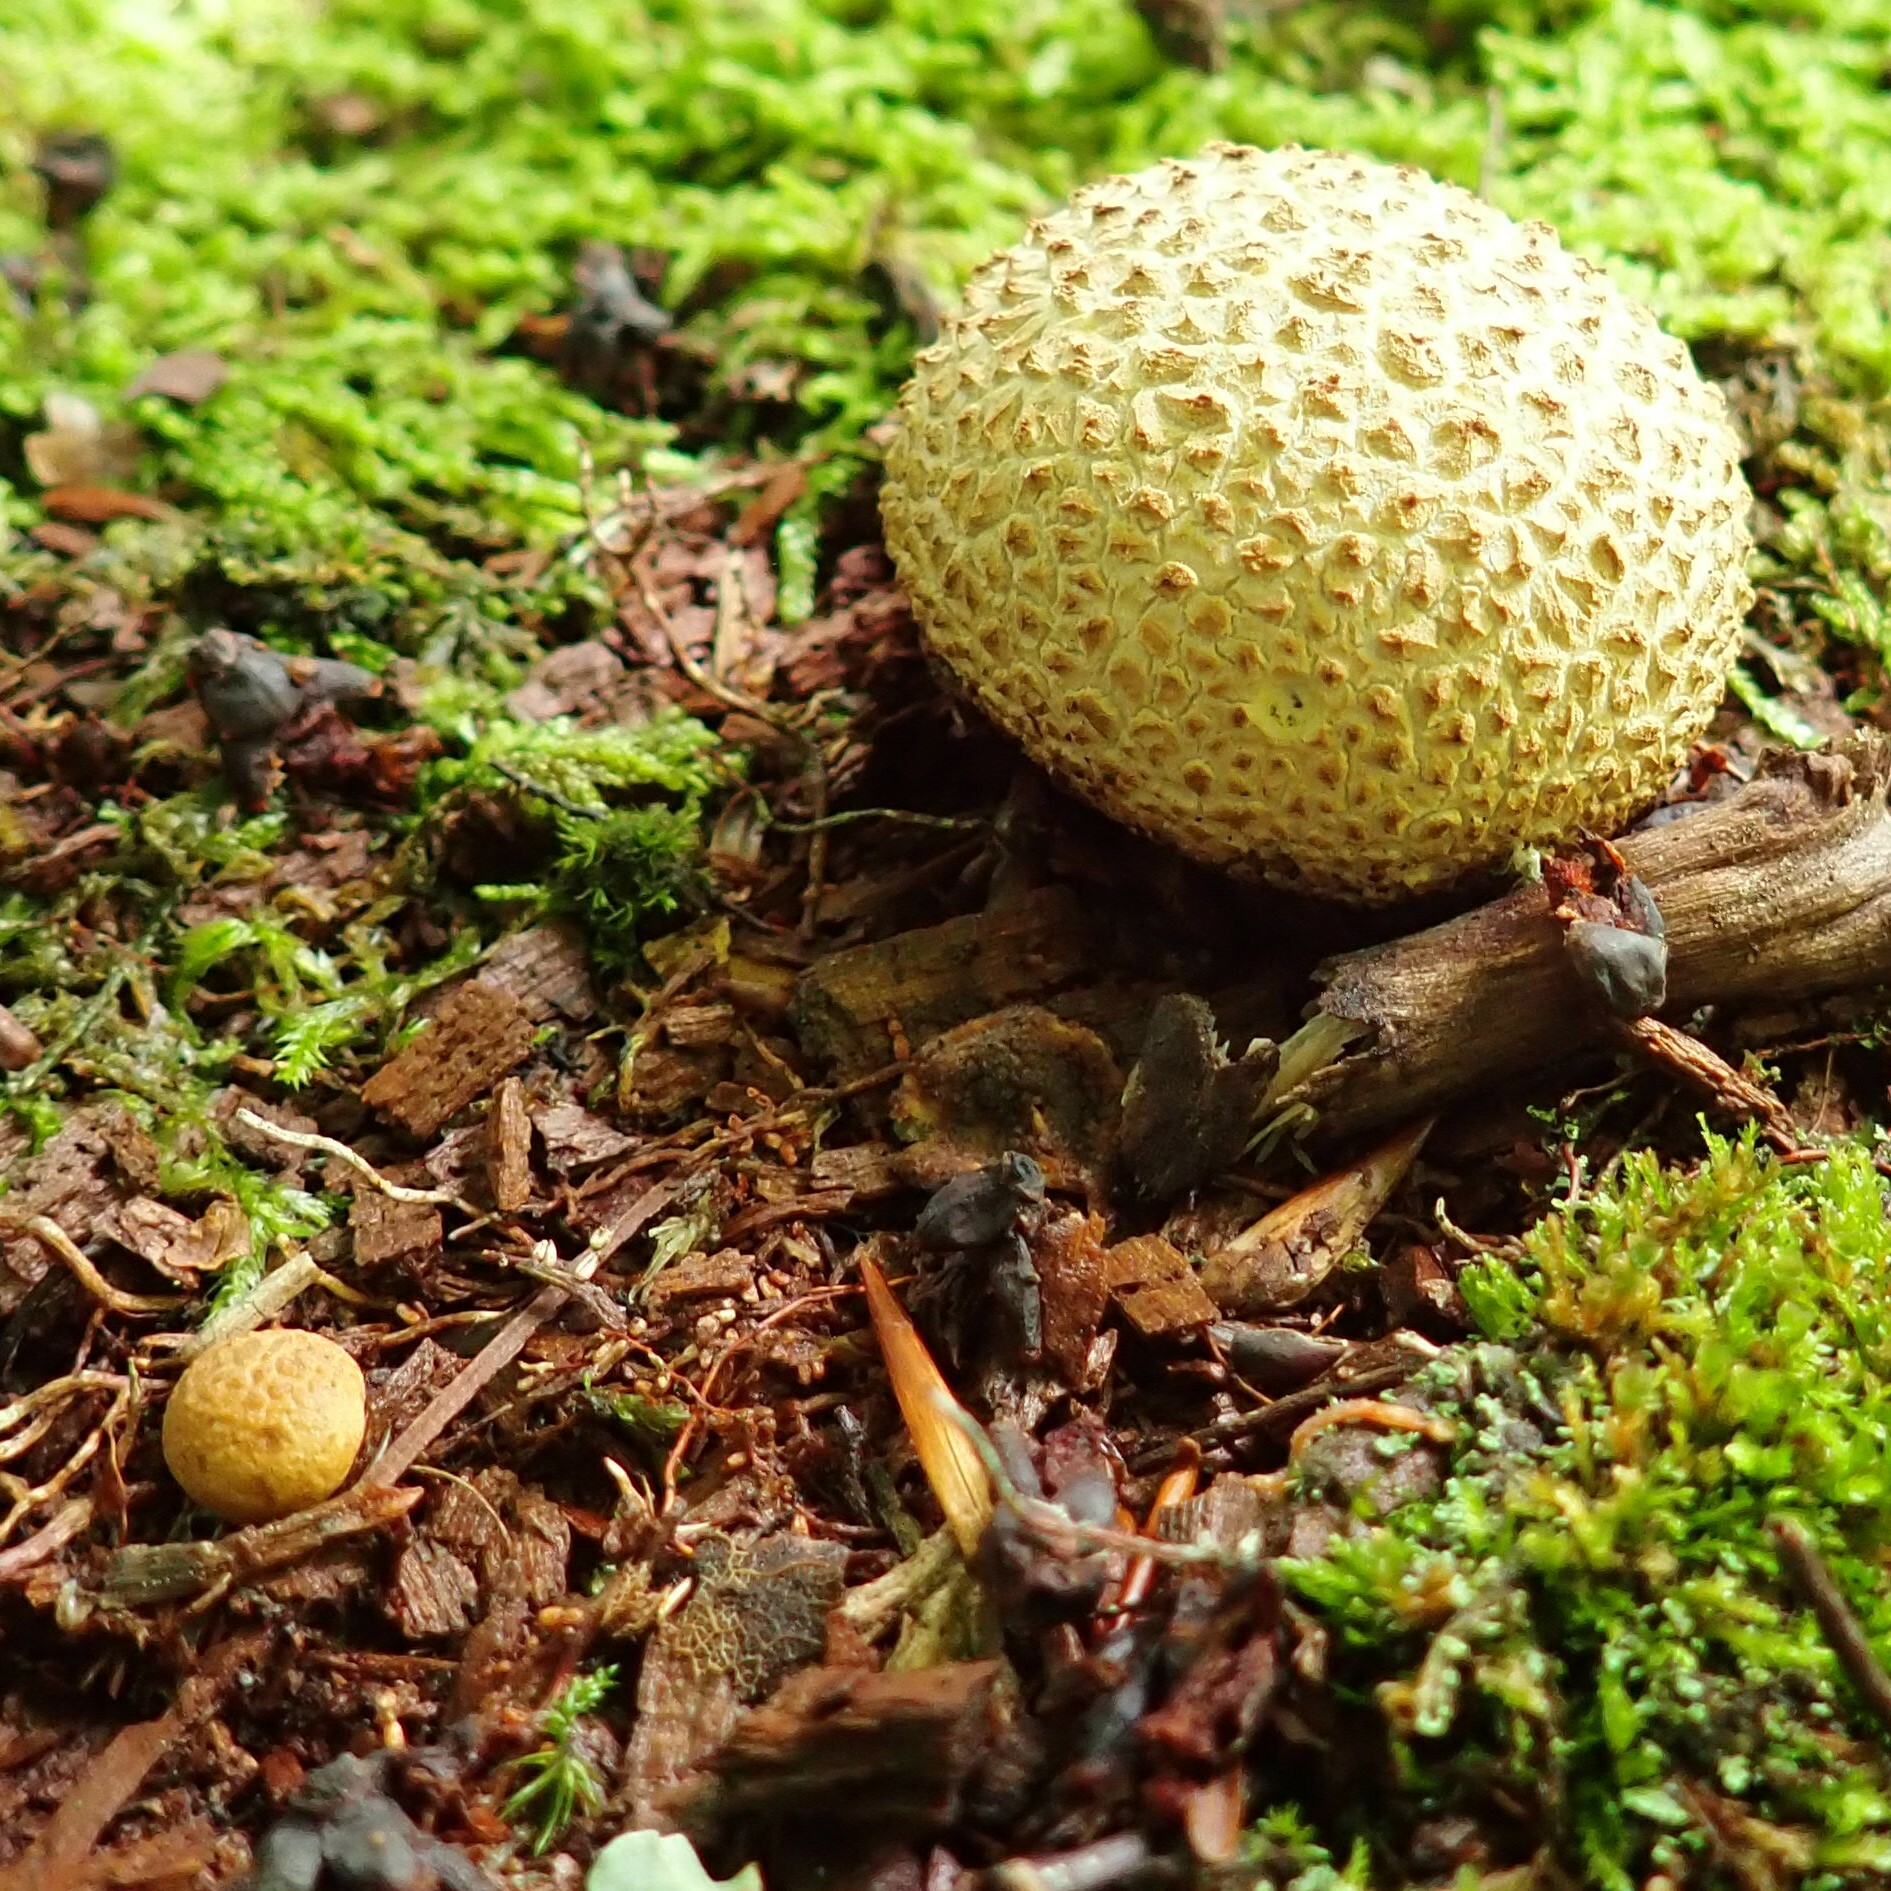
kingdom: Fungi
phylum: Basidiomycota
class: Agaricomycetes
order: Boletales
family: Sclerodermataceae
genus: Scleroderma
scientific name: Scleroderma citrinum
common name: Common earthball
